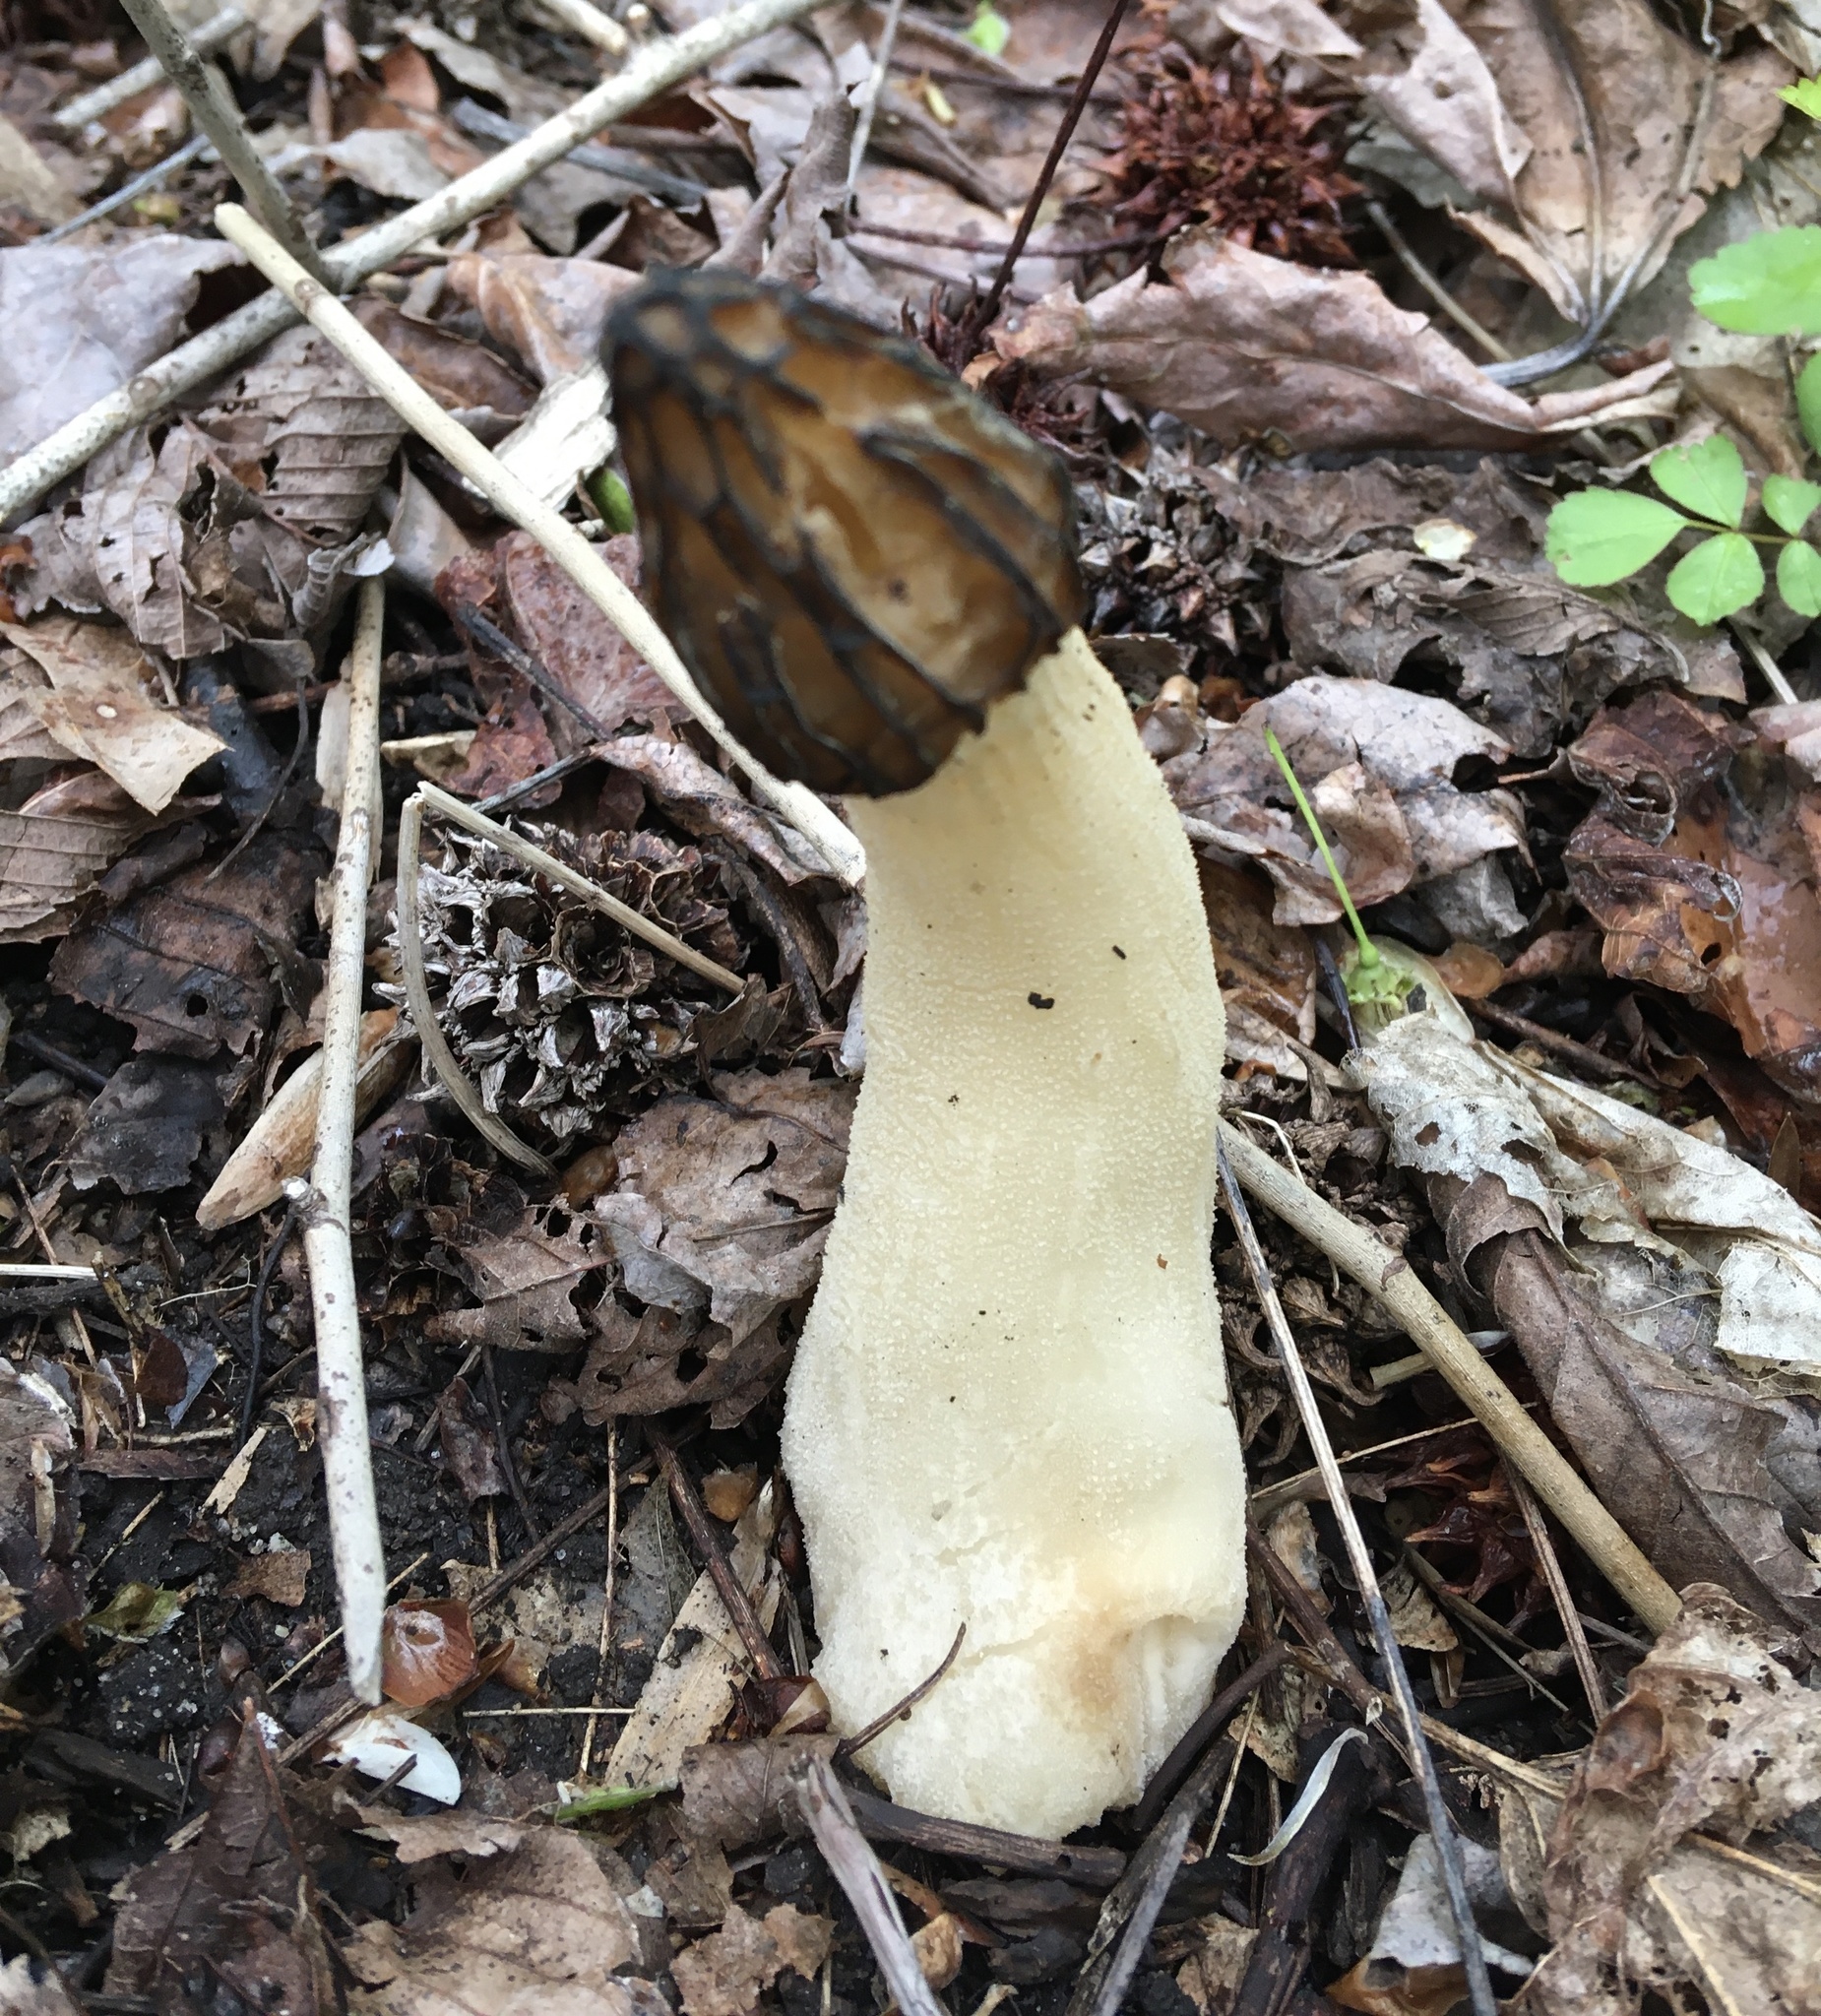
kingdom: Fungi
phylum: Ascomycota
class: Pezizomycetes
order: Pezizales
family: Morchellaceae
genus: Morchella
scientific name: Morchella punctipes
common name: Half-free morel
